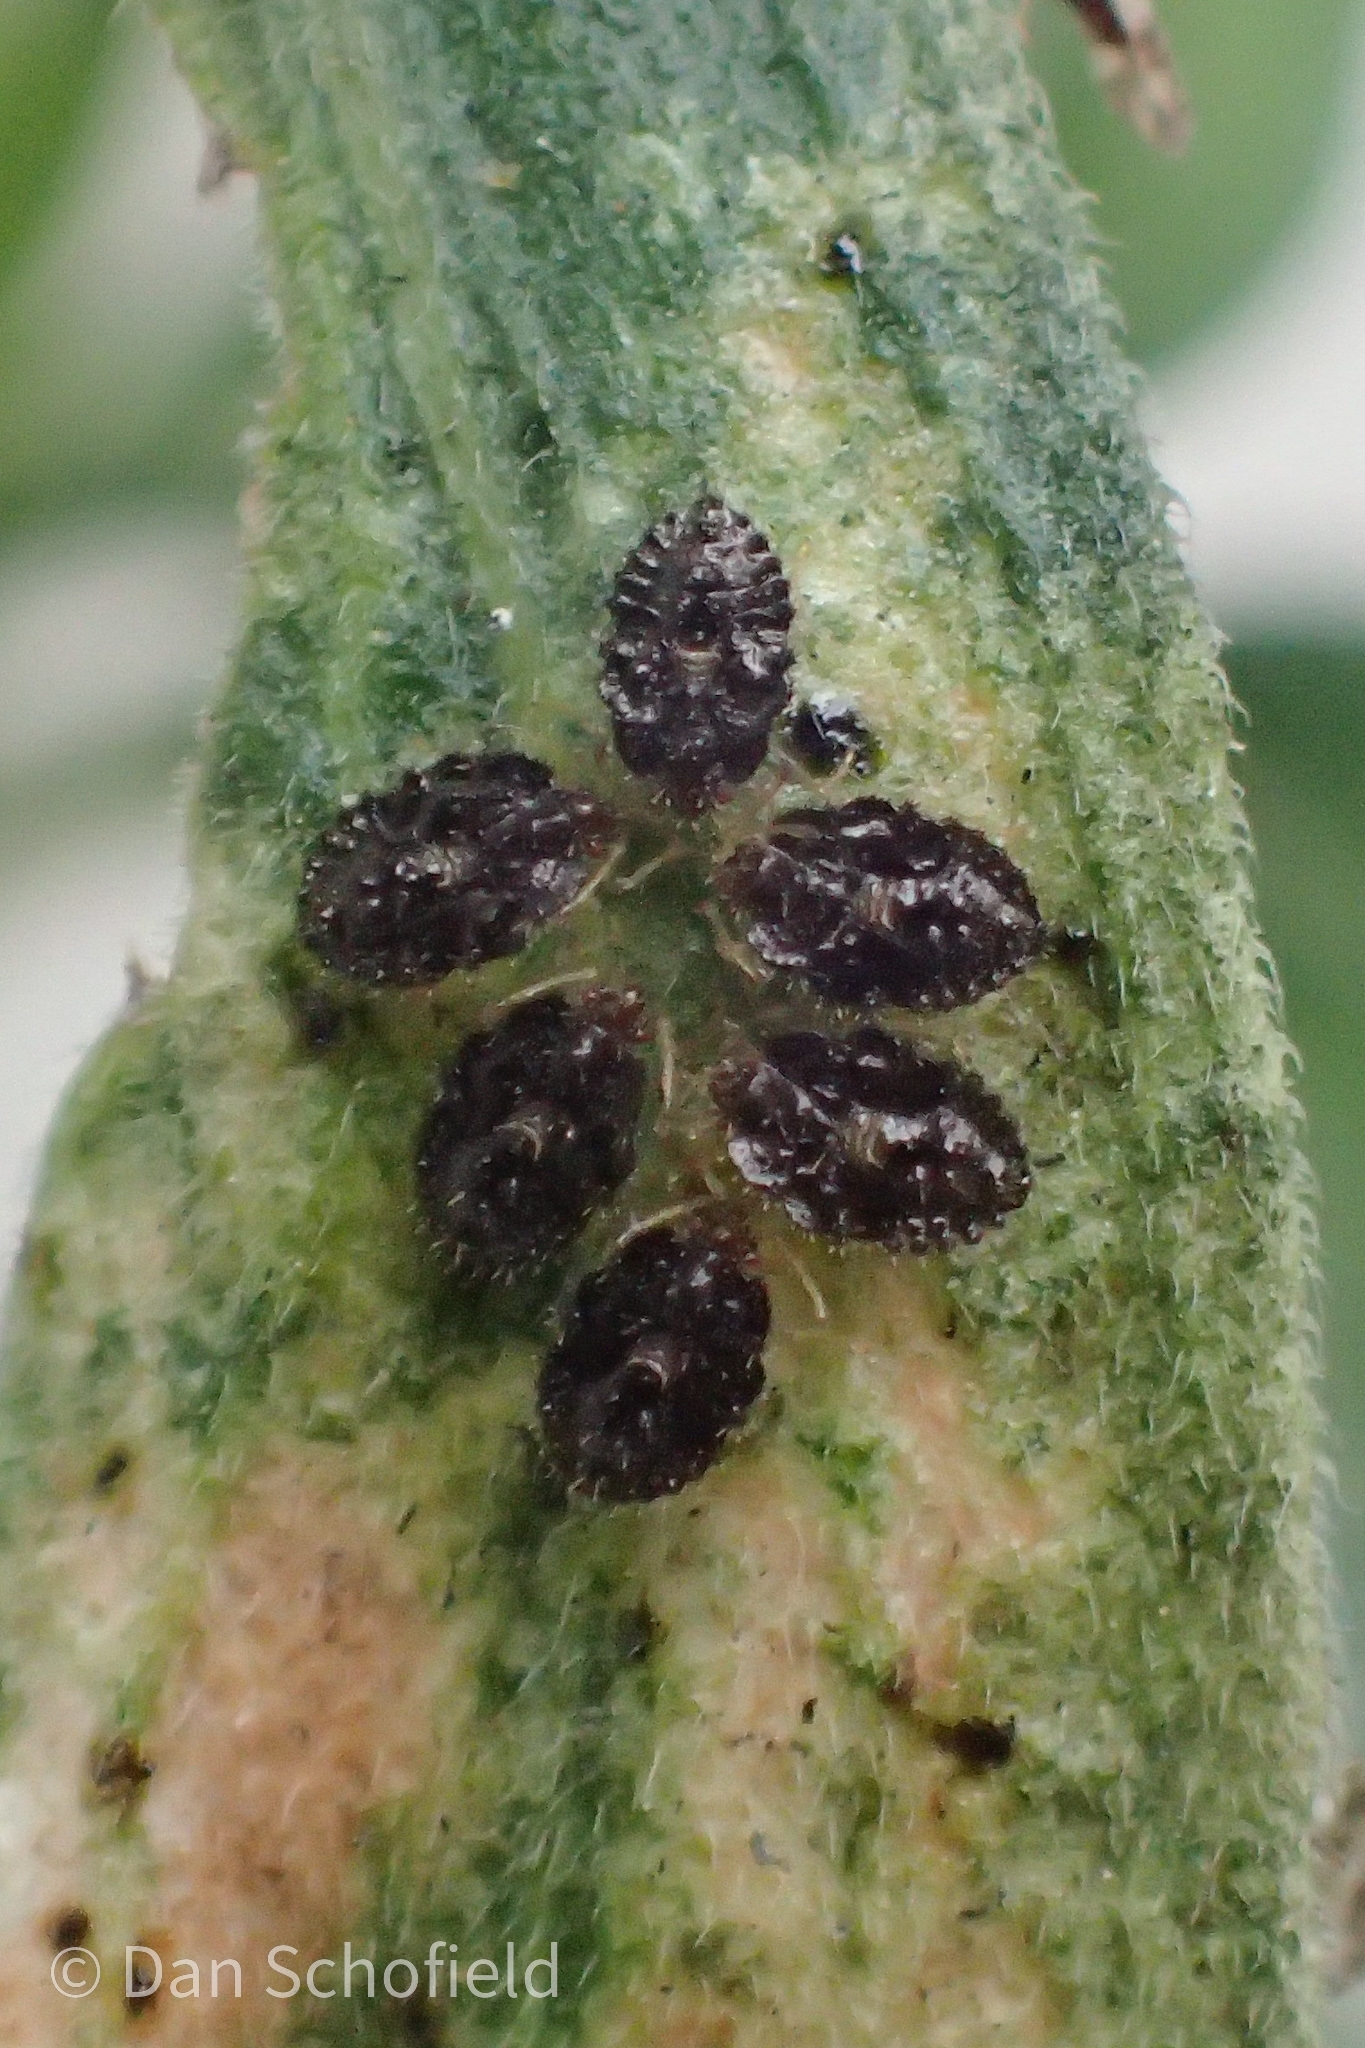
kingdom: Animalia
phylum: Arthropoda
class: Insecta
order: Hemiptera
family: Tingidae
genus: Corythucha
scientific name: Corythucha marmorata
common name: Chrysanthemum lace bug
